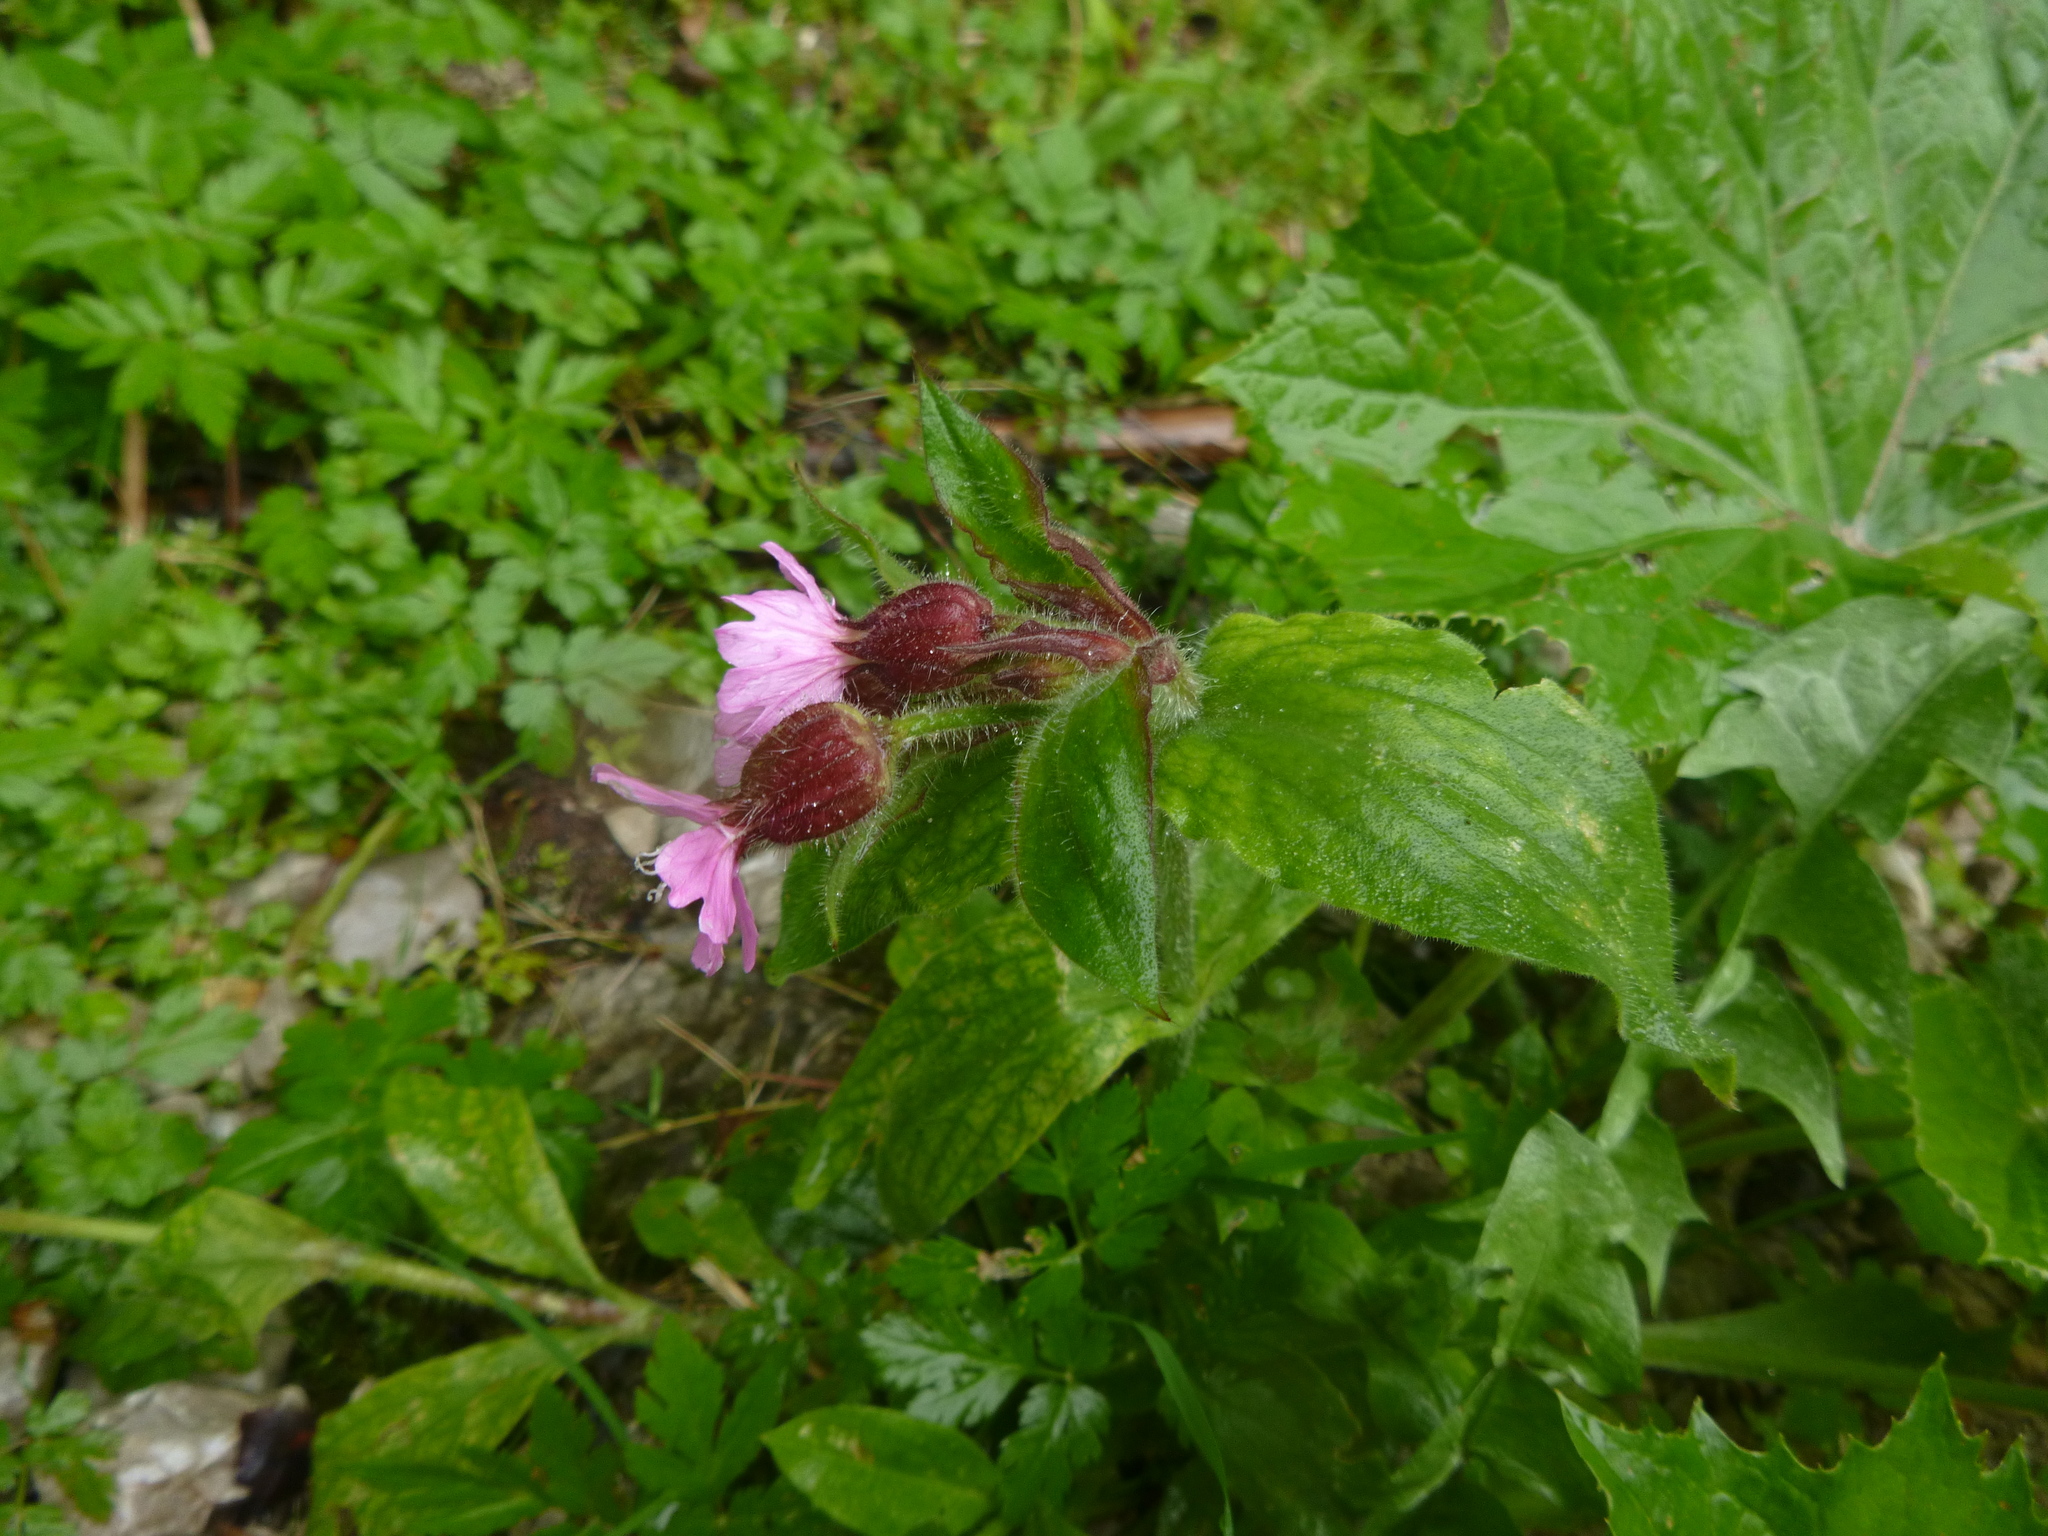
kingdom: Plantae
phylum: Tracheophyta
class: Magnoliopsida
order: Caryophyllales
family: Caryophyllaceae
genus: Silene
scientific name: Silene dioica
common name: Red campion
